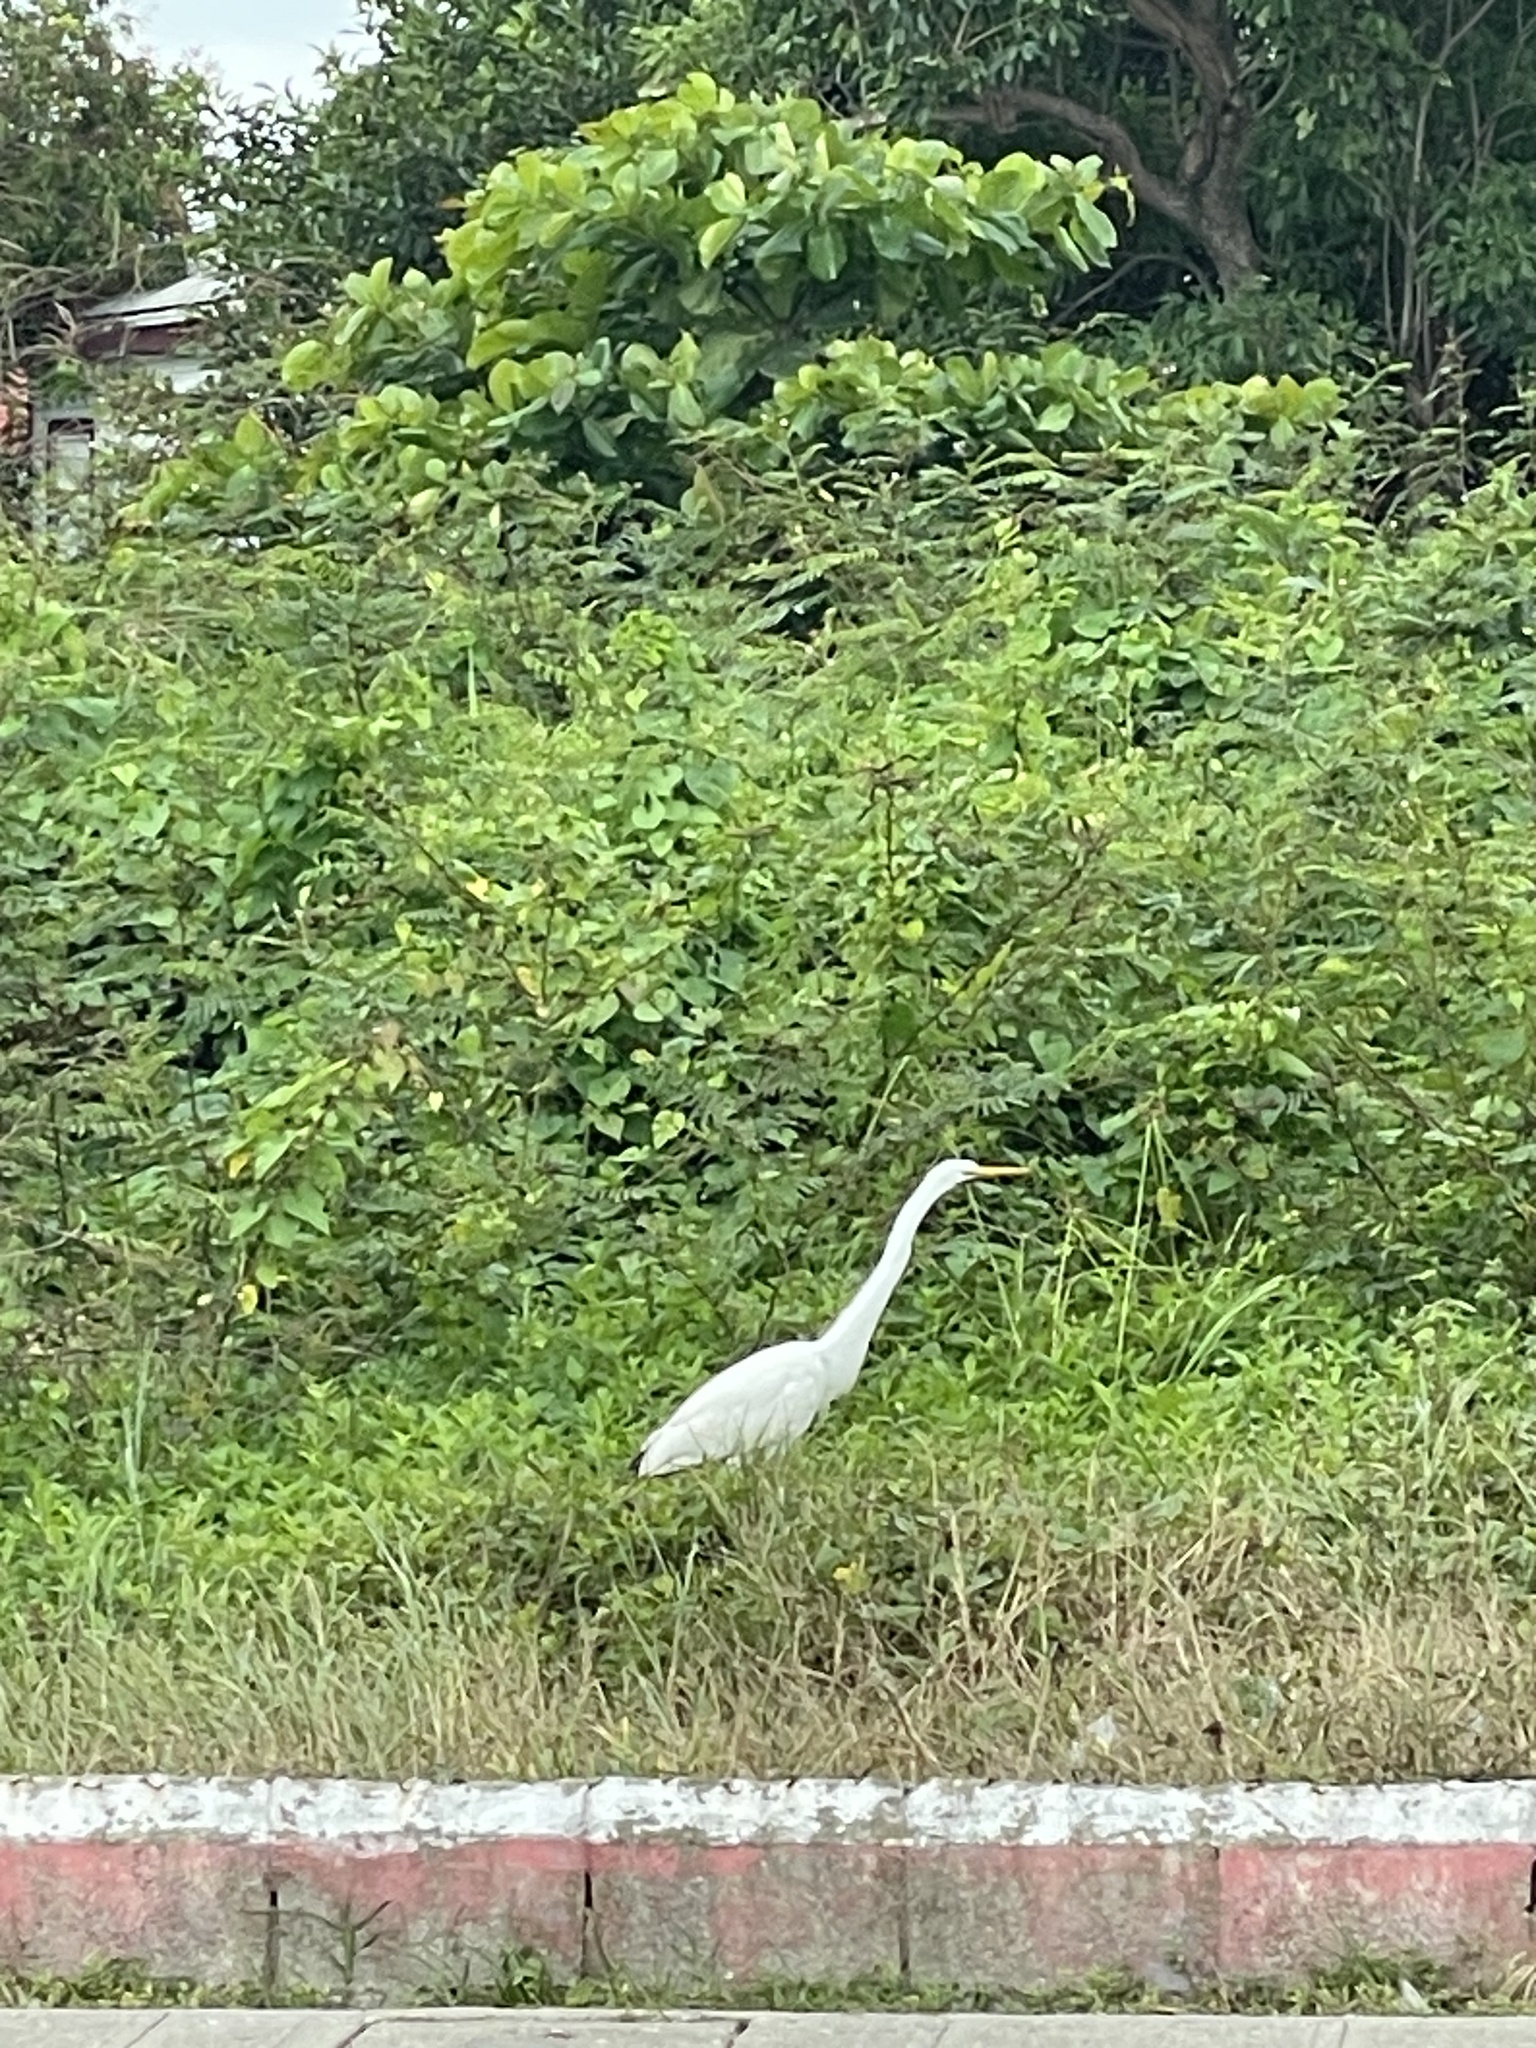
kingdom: Animalia
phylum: Chordata
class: Aves
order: Pelecaniformes
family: Ardeidae
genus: Ardea
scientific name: Ardea alba
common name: Great egret
